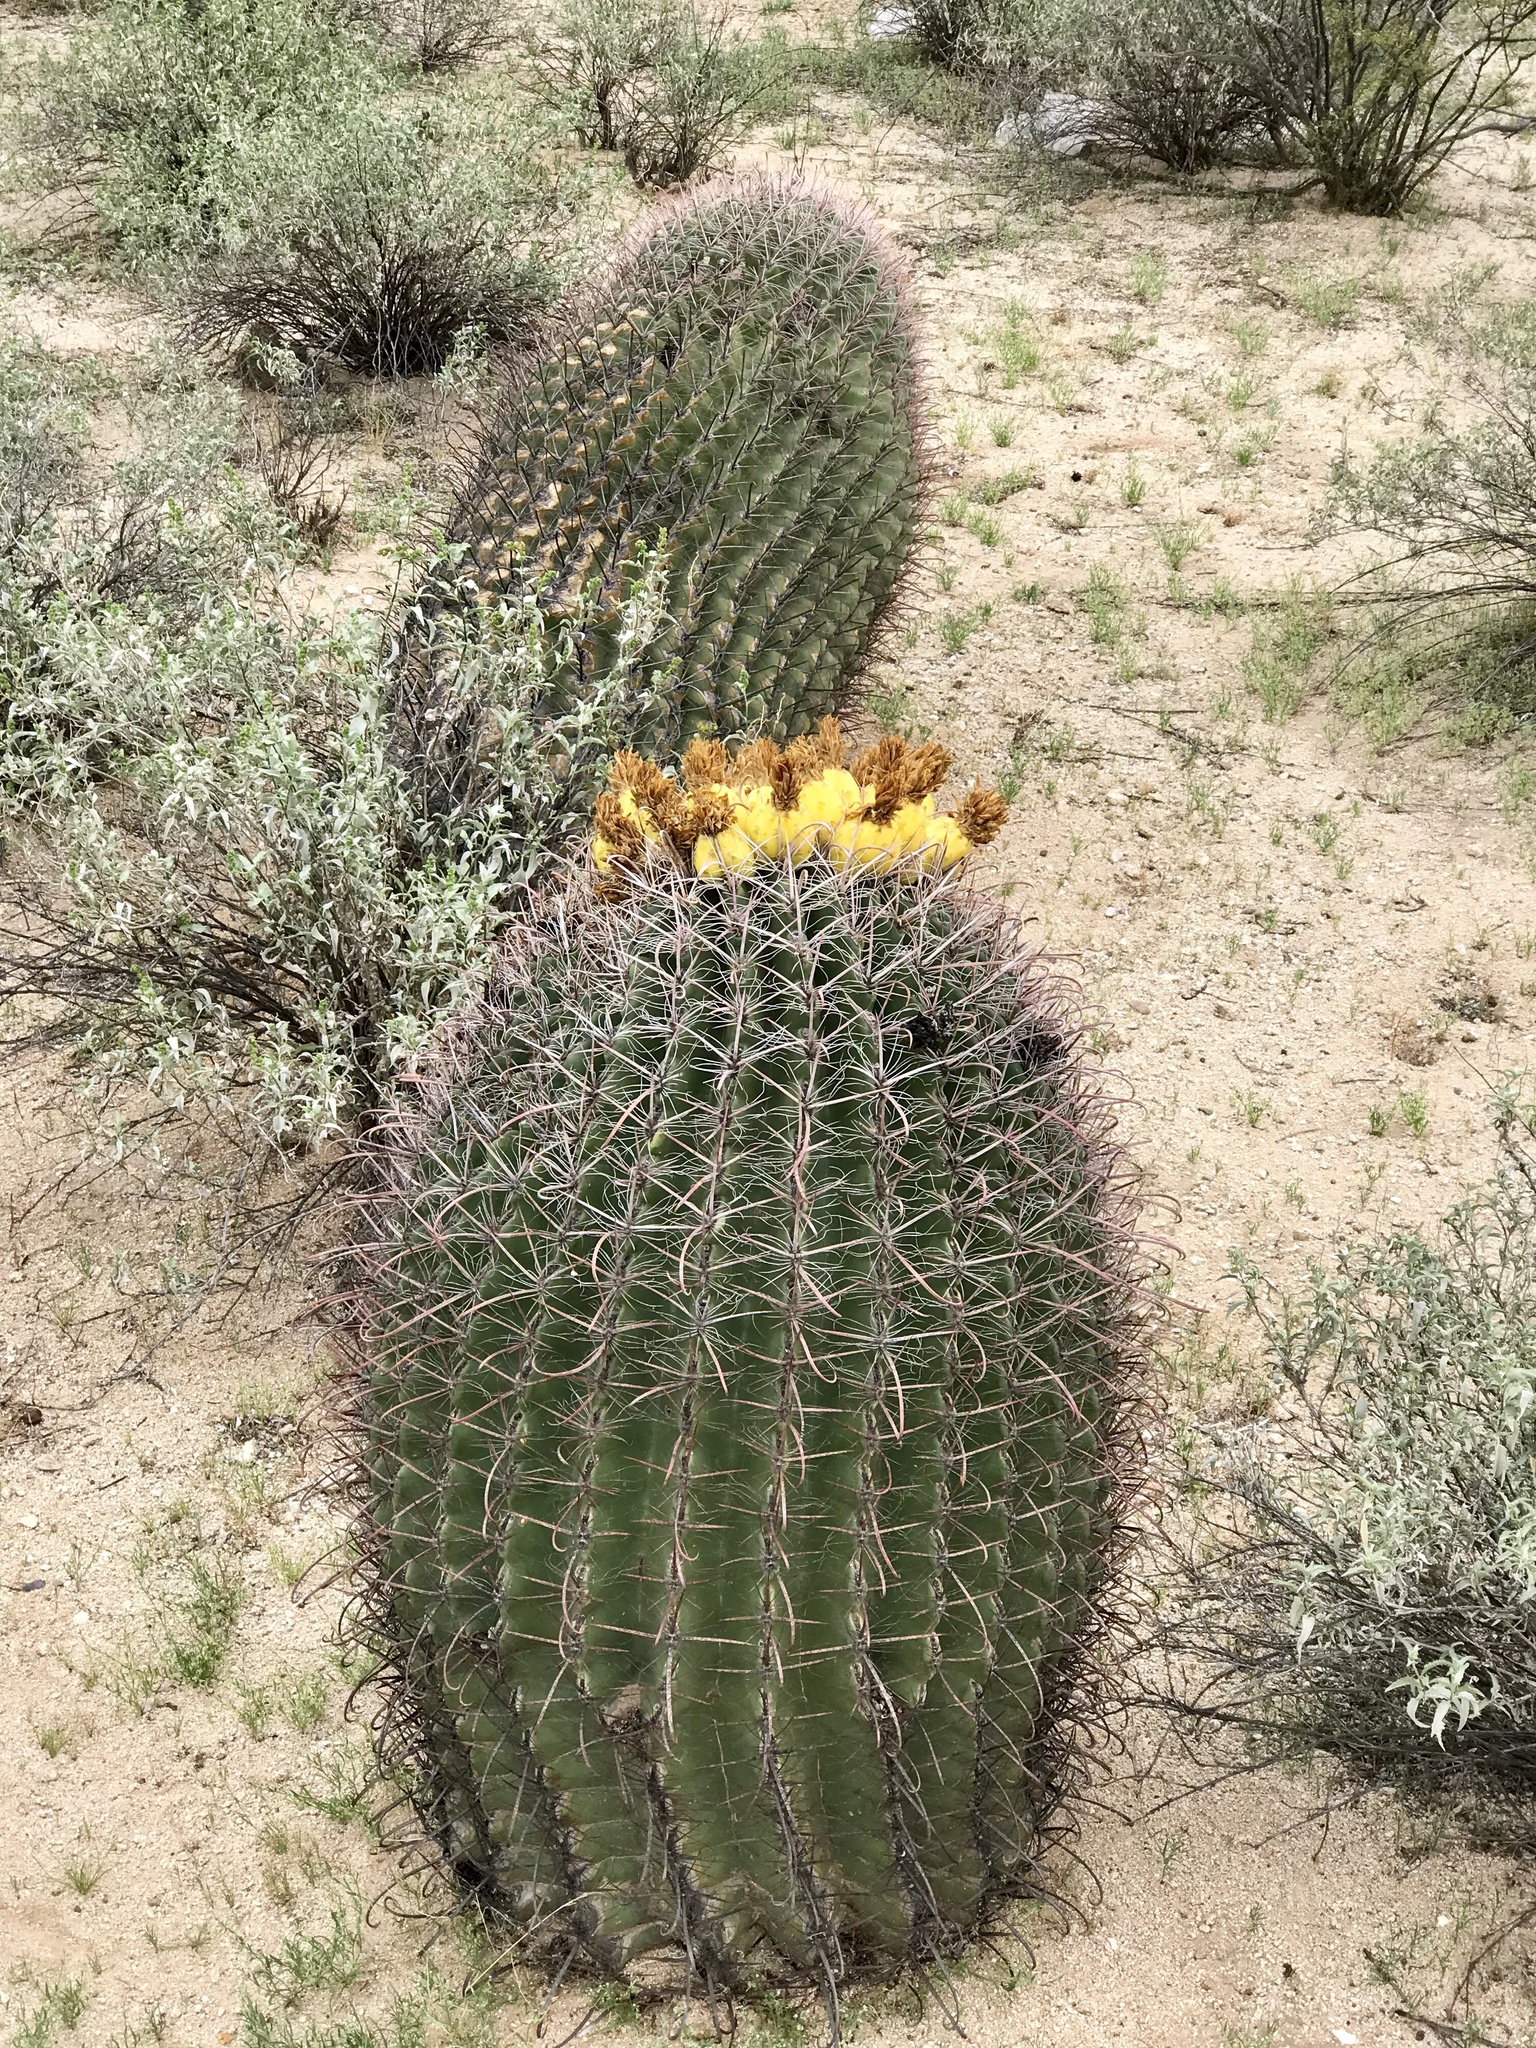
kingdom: Plantae
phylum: Tracheophyta
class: Magnoliopsida
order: Caryophyllales
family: Cactaceae
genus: Ferocactus
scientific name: Ferocactus wislizeni
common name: Candy barrel cactus
